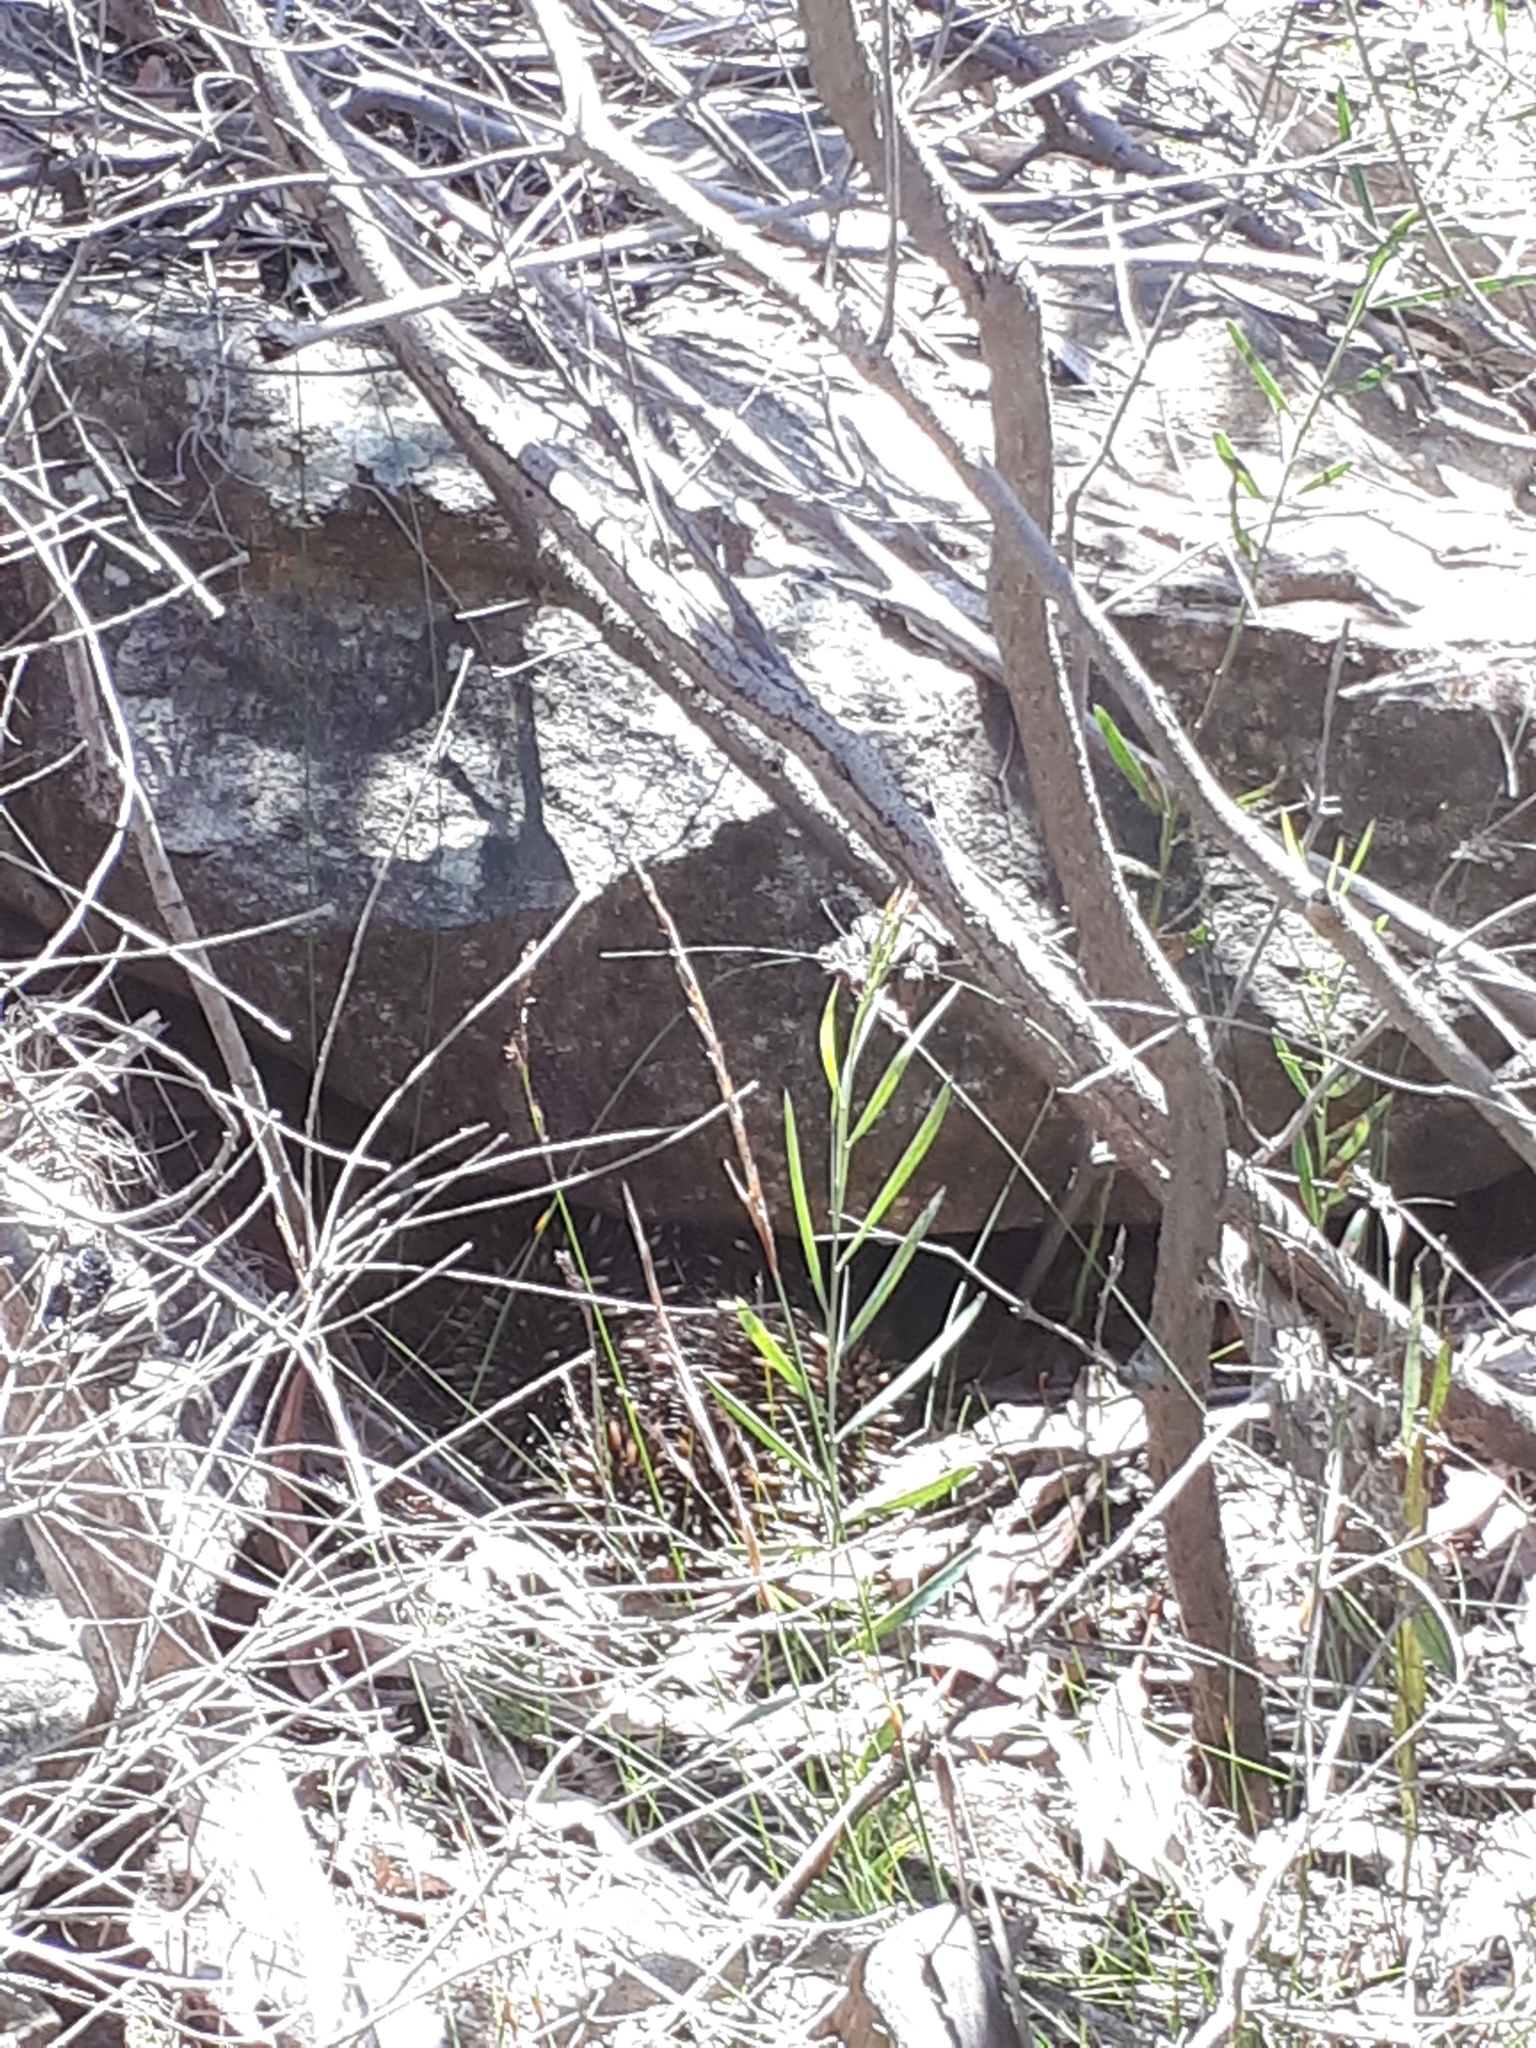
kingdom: Animalia
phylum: Chordata
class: Mammalia
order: Monotremata
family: Tachyglossidae
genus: Tachyglossus
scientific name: Tachyglossus aculeatus
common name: Short-beaked echidna
